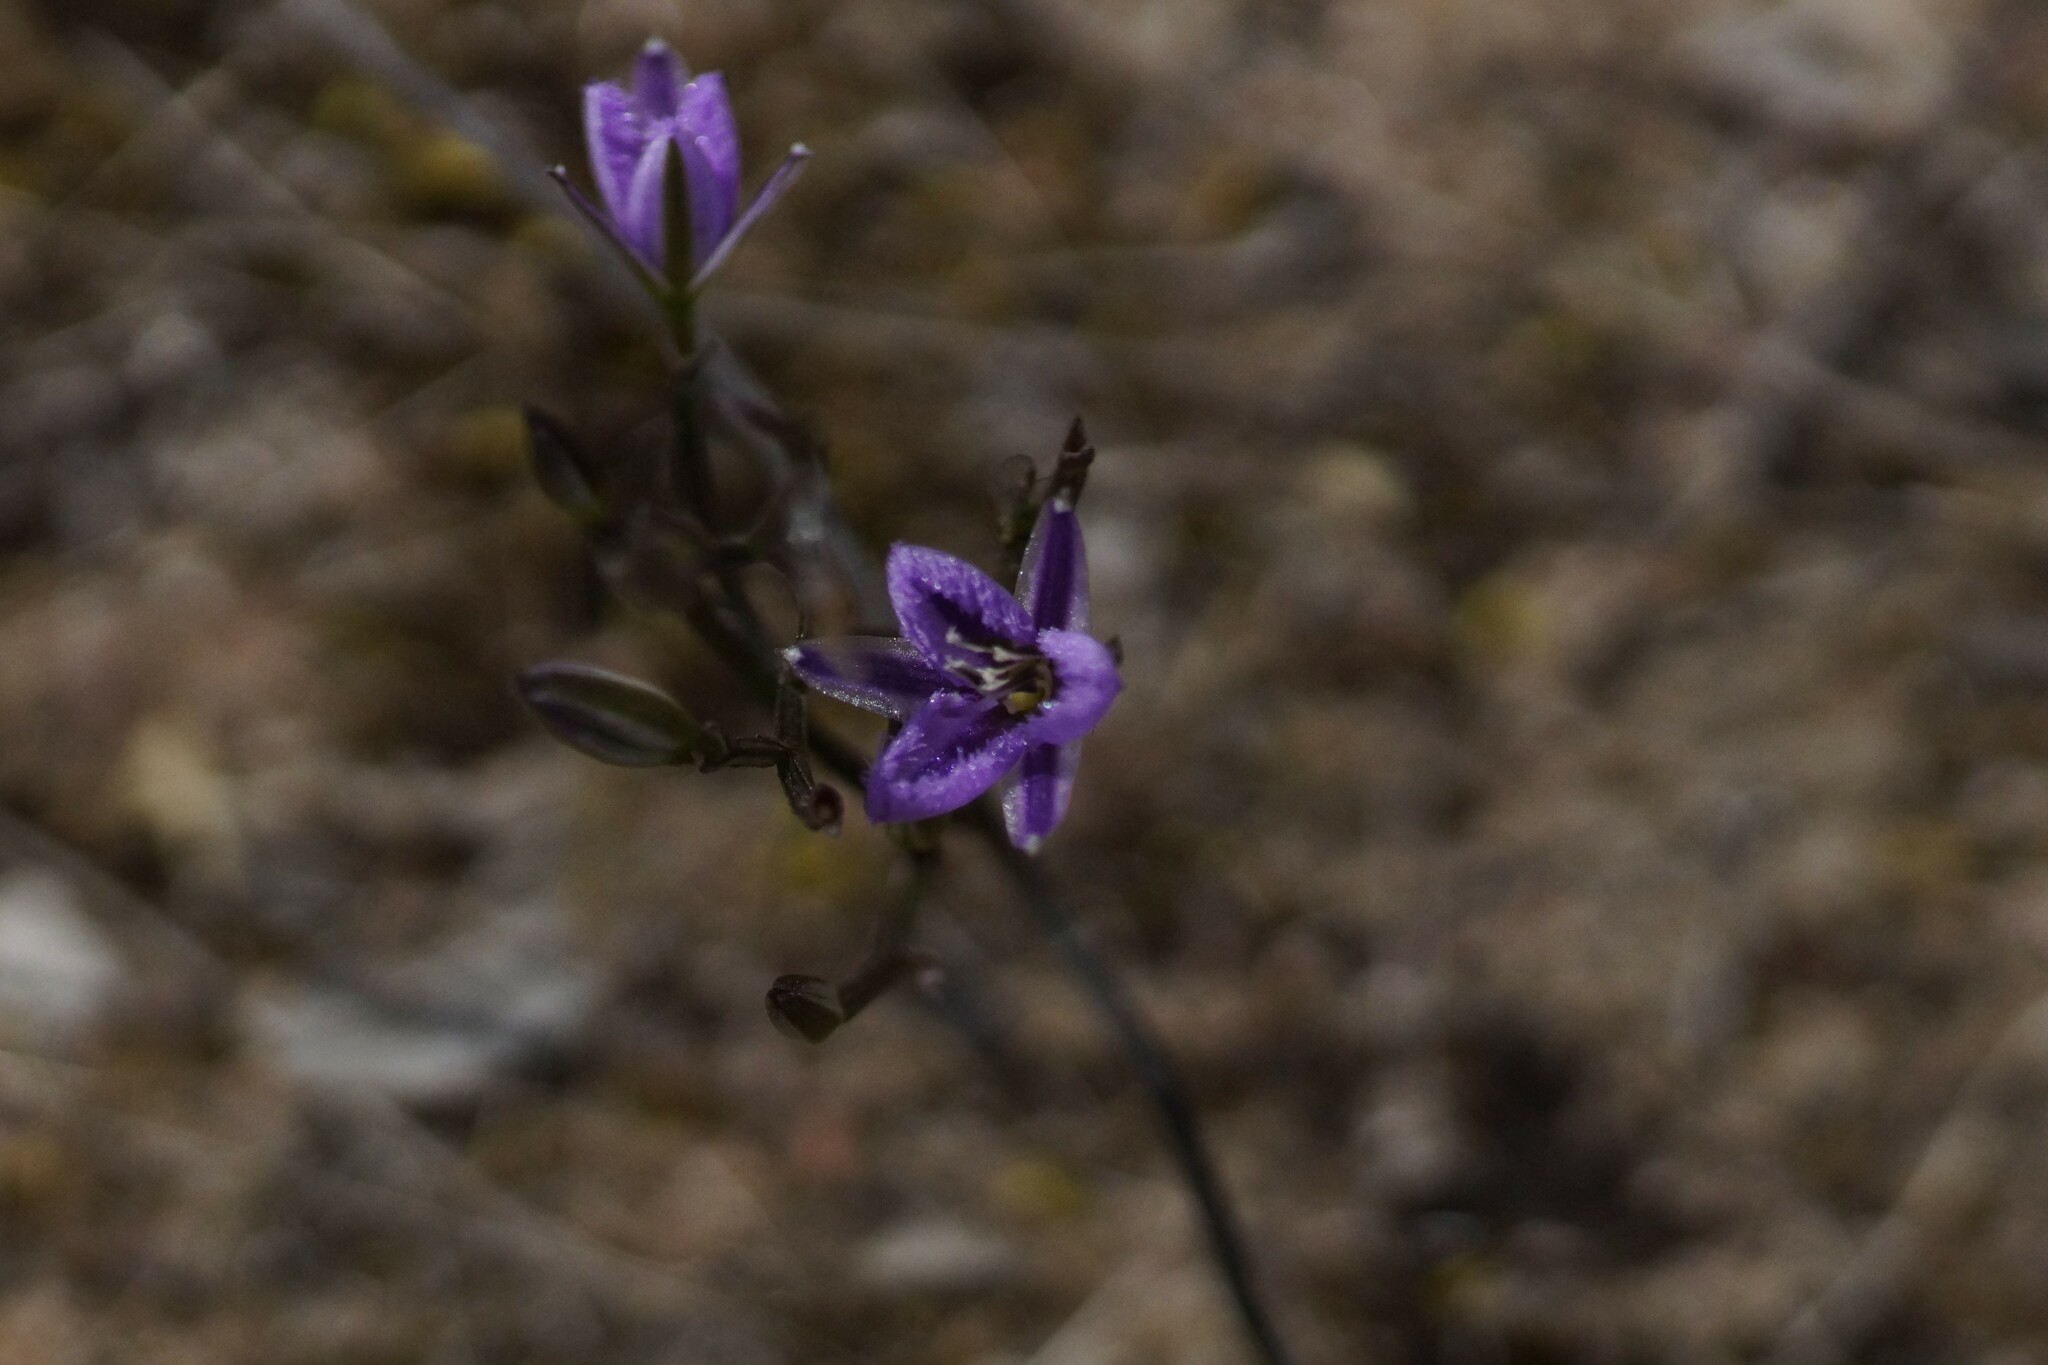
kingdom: Plantae
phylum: Tracheophyta
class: Liliopsida
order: Asparagales
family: Asparagaceae
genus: Thysanotus
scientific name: Thysanotus patersonii
